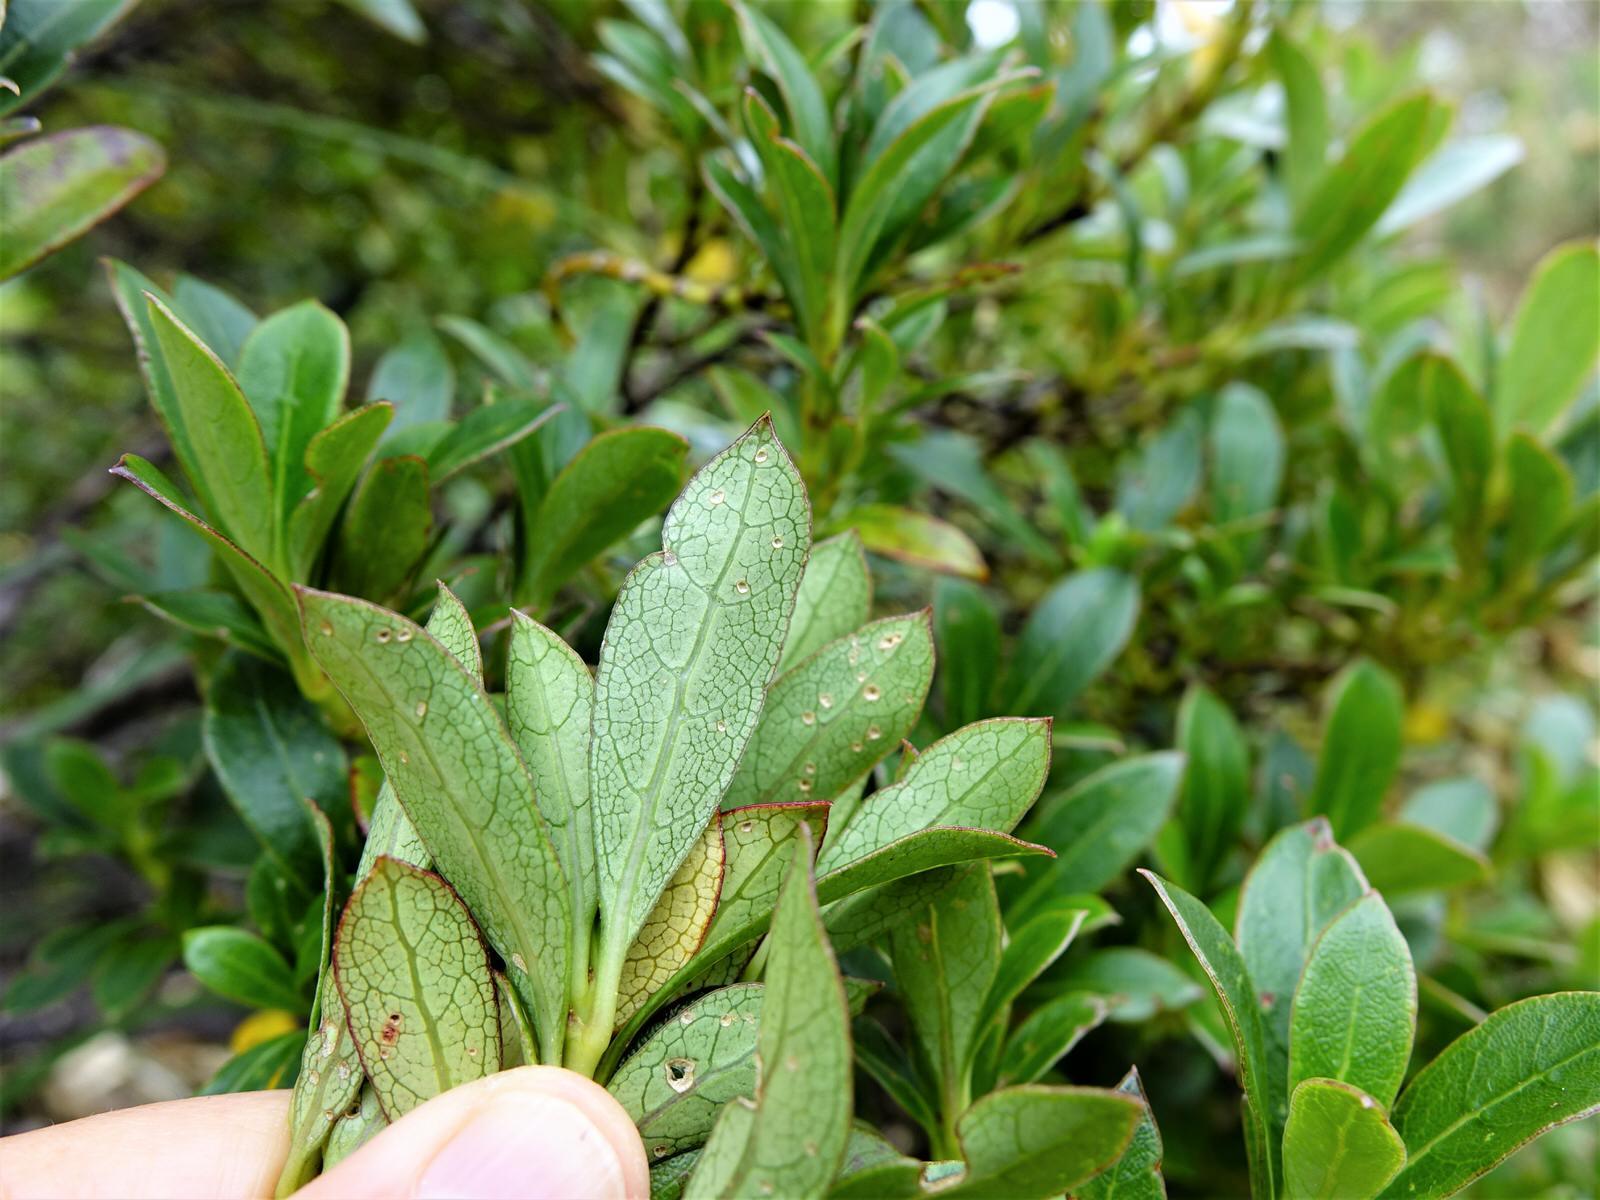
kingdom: Plantae
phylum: Tracheophyta
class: Magnoliopsida
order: Gentianales
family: Rubiaceae
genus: Coprosma
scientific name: Coprosma lucida
